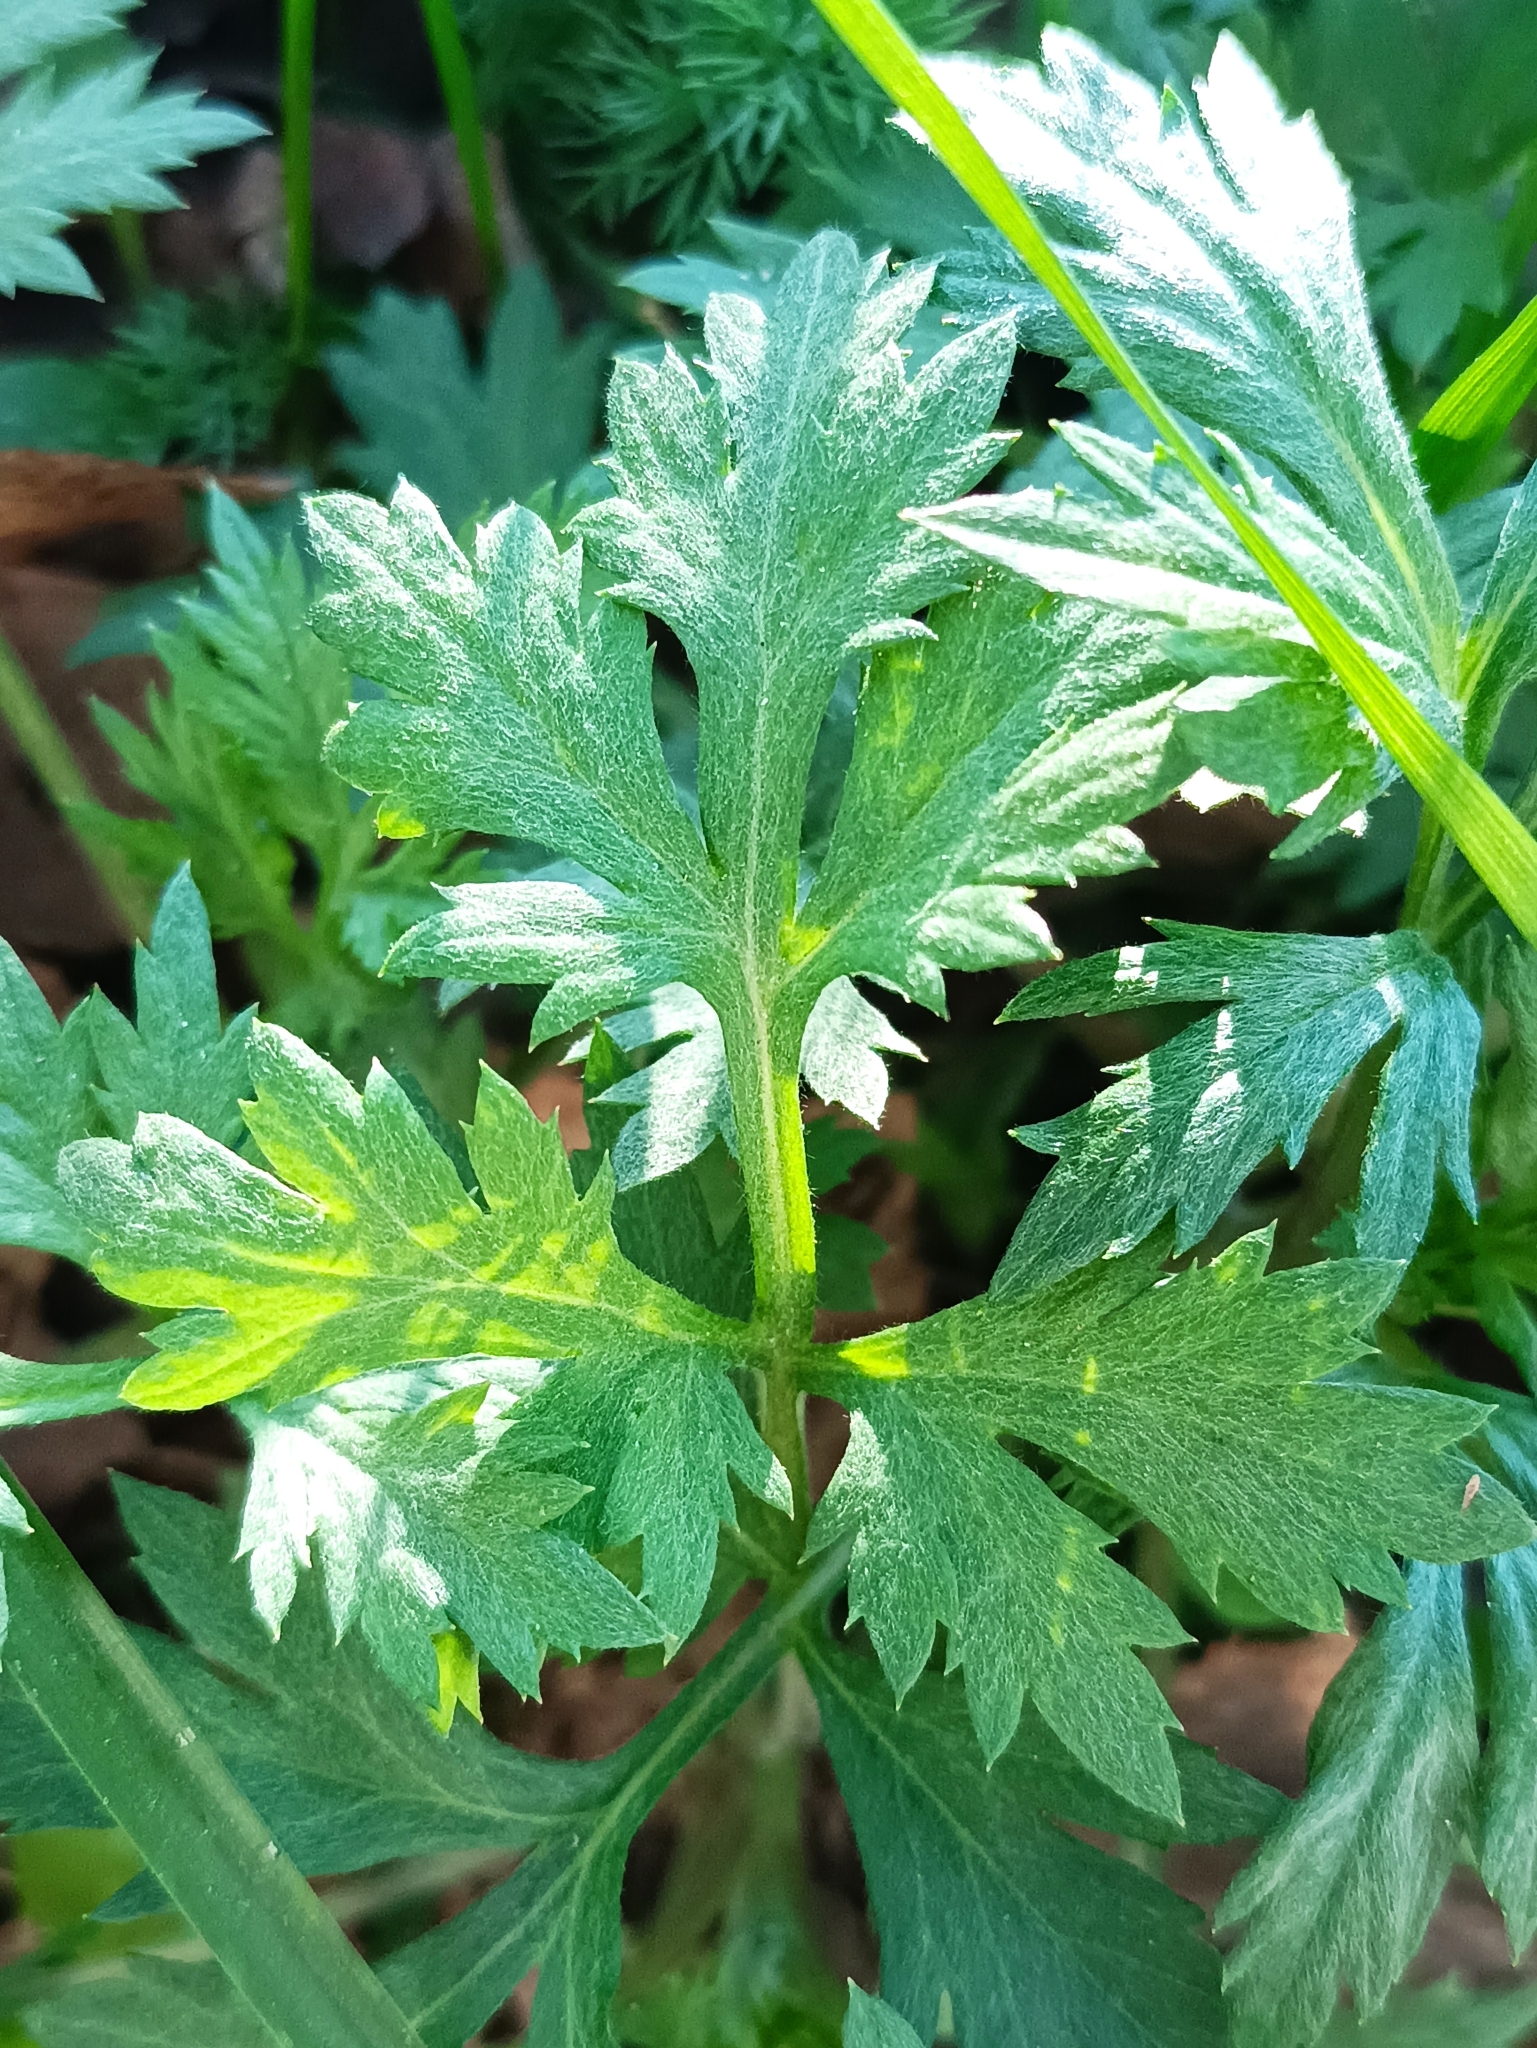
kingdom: Plantae
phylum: Tracheophyta
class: Magnoliopsida
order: Asterales
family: Asteraceae
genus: Artemisia
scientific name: Artemisia vulgaris
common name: Mugwort
